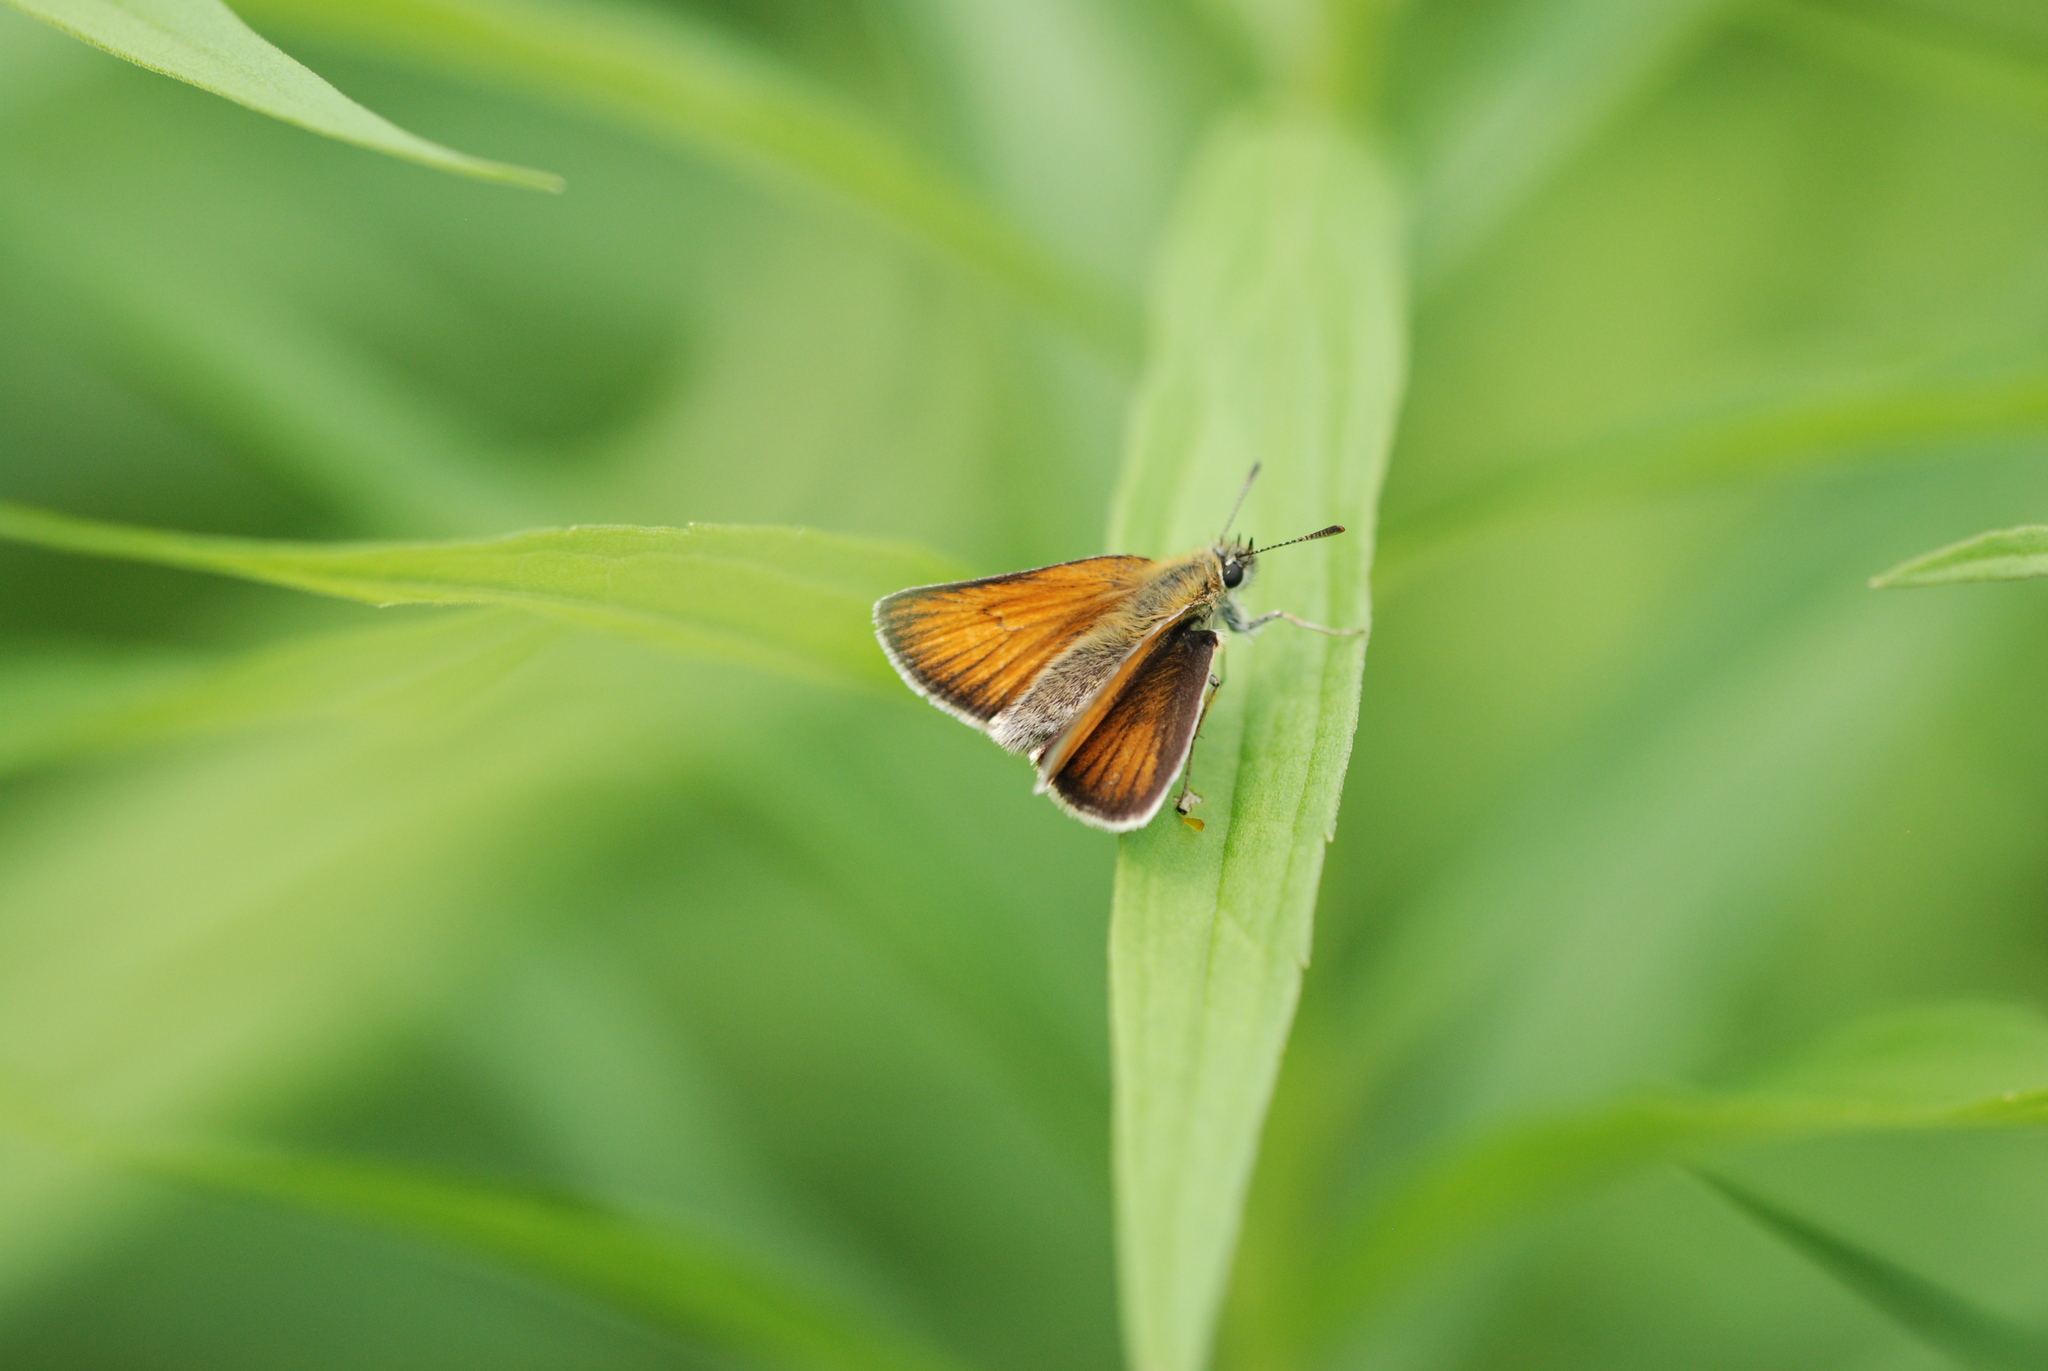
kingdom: Animalia
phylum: Arthropoda
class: Insecta
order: Lepidoptera
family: Hesperiidae
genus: Thymelicus
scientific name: Thymelicus lineola
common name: Essex skipper
